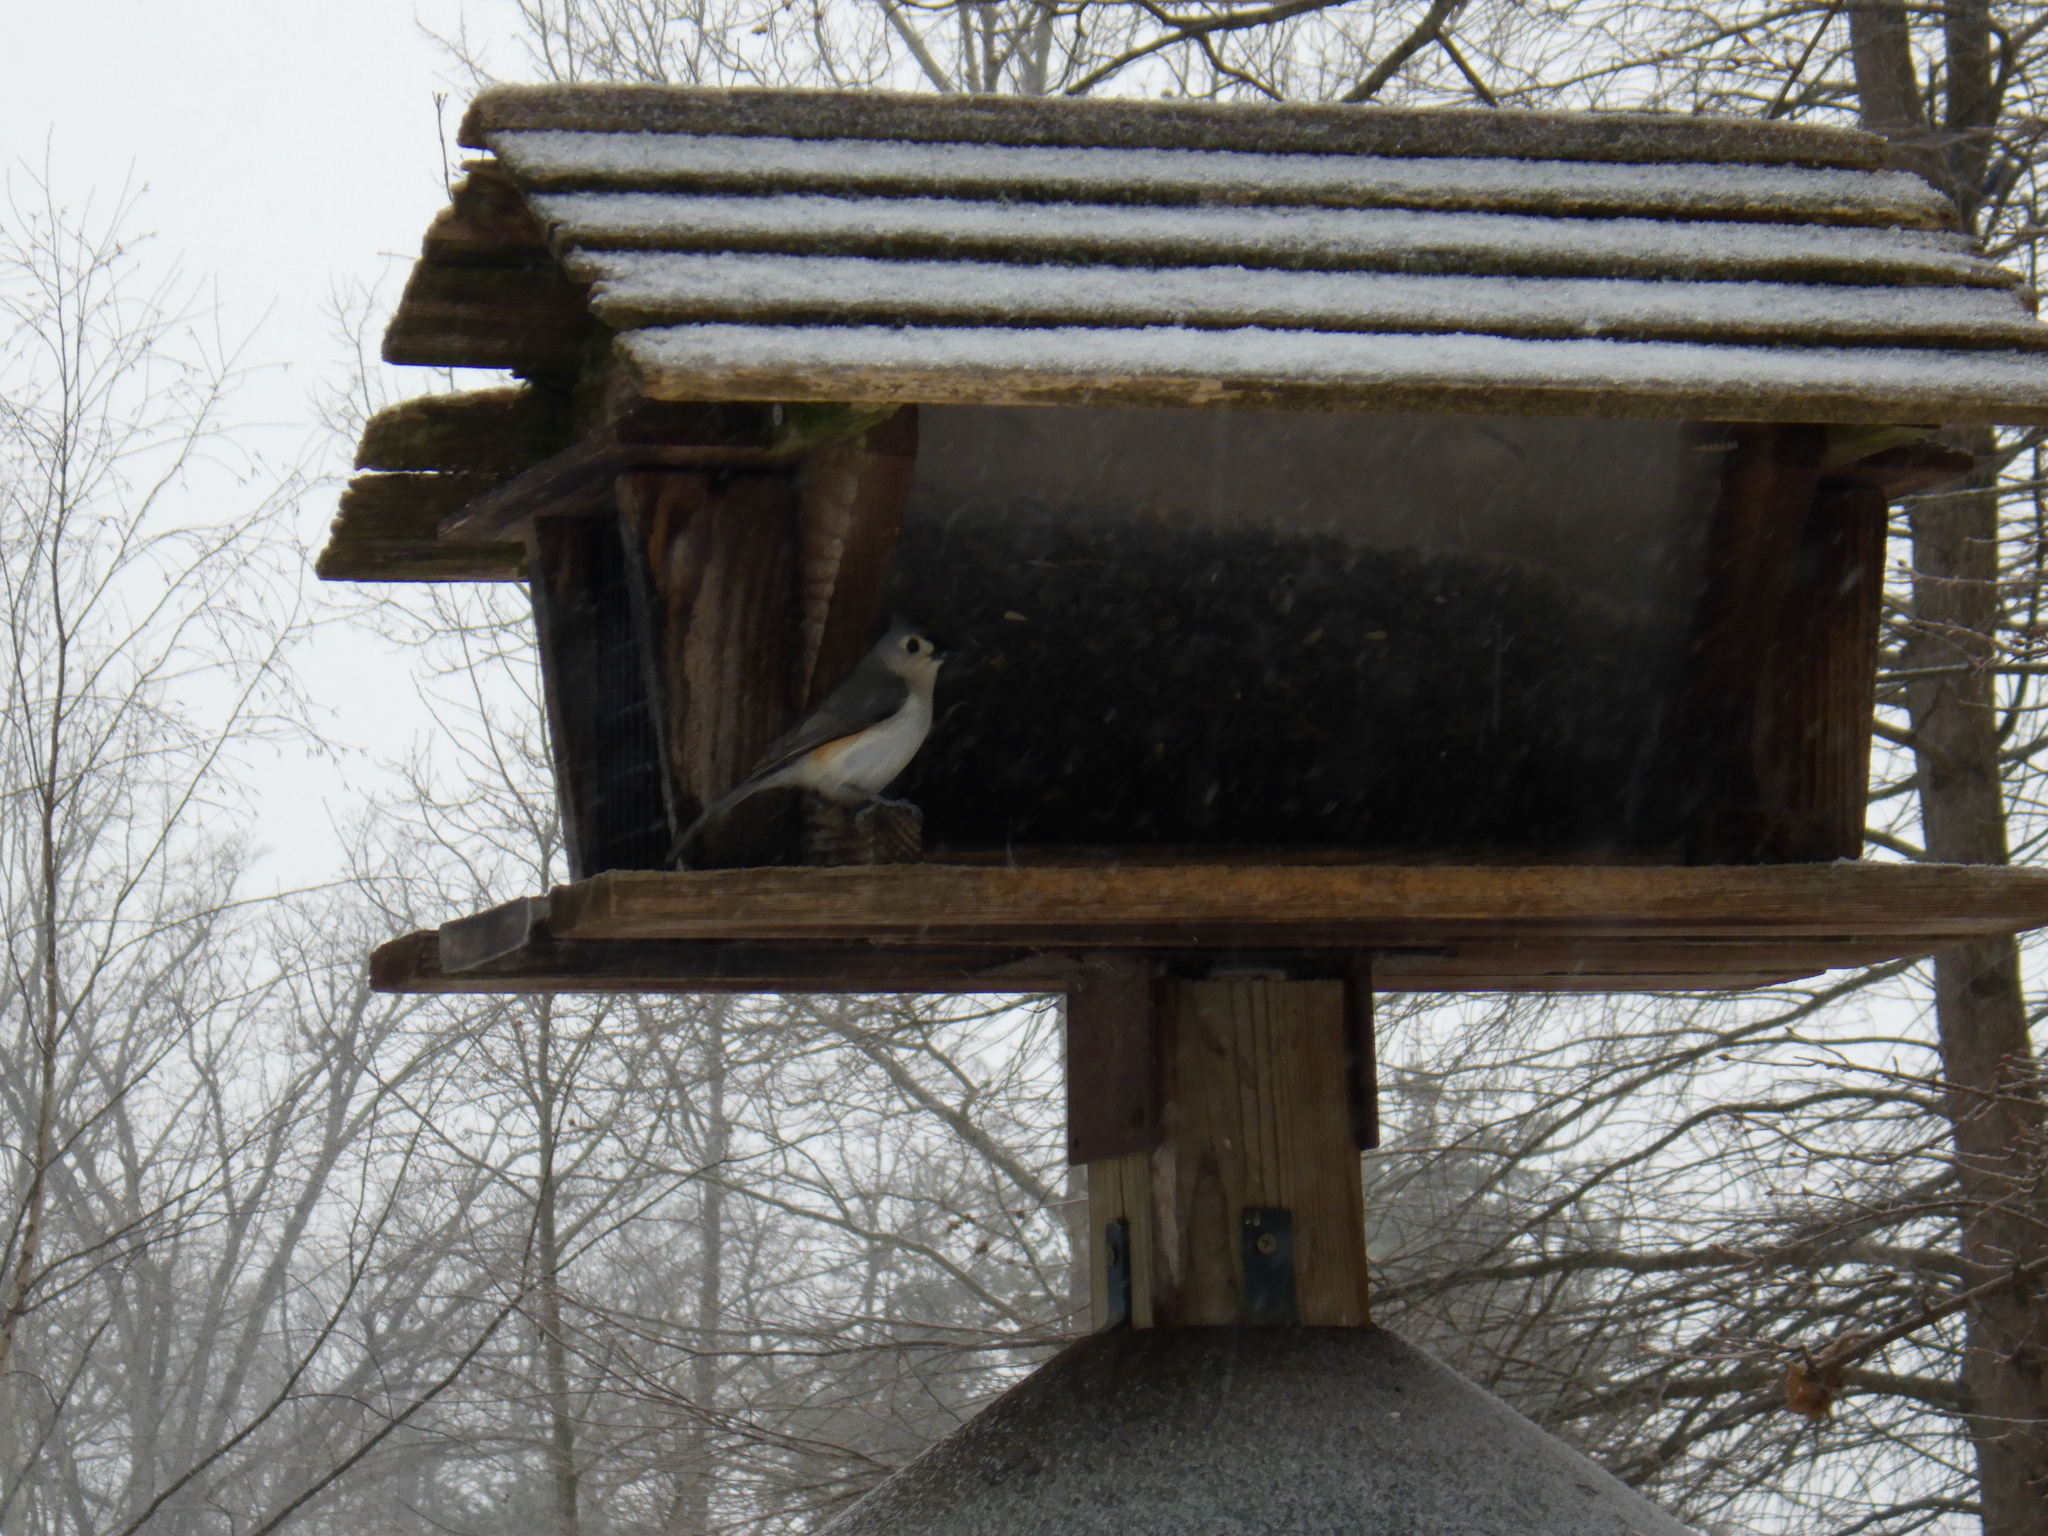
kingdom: Animalia
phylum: Chordata
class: Aves
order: Passeriformes
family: Paridae
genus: Baeolophus
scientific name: Baeolophus bicolor
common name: Tufted titmouse
